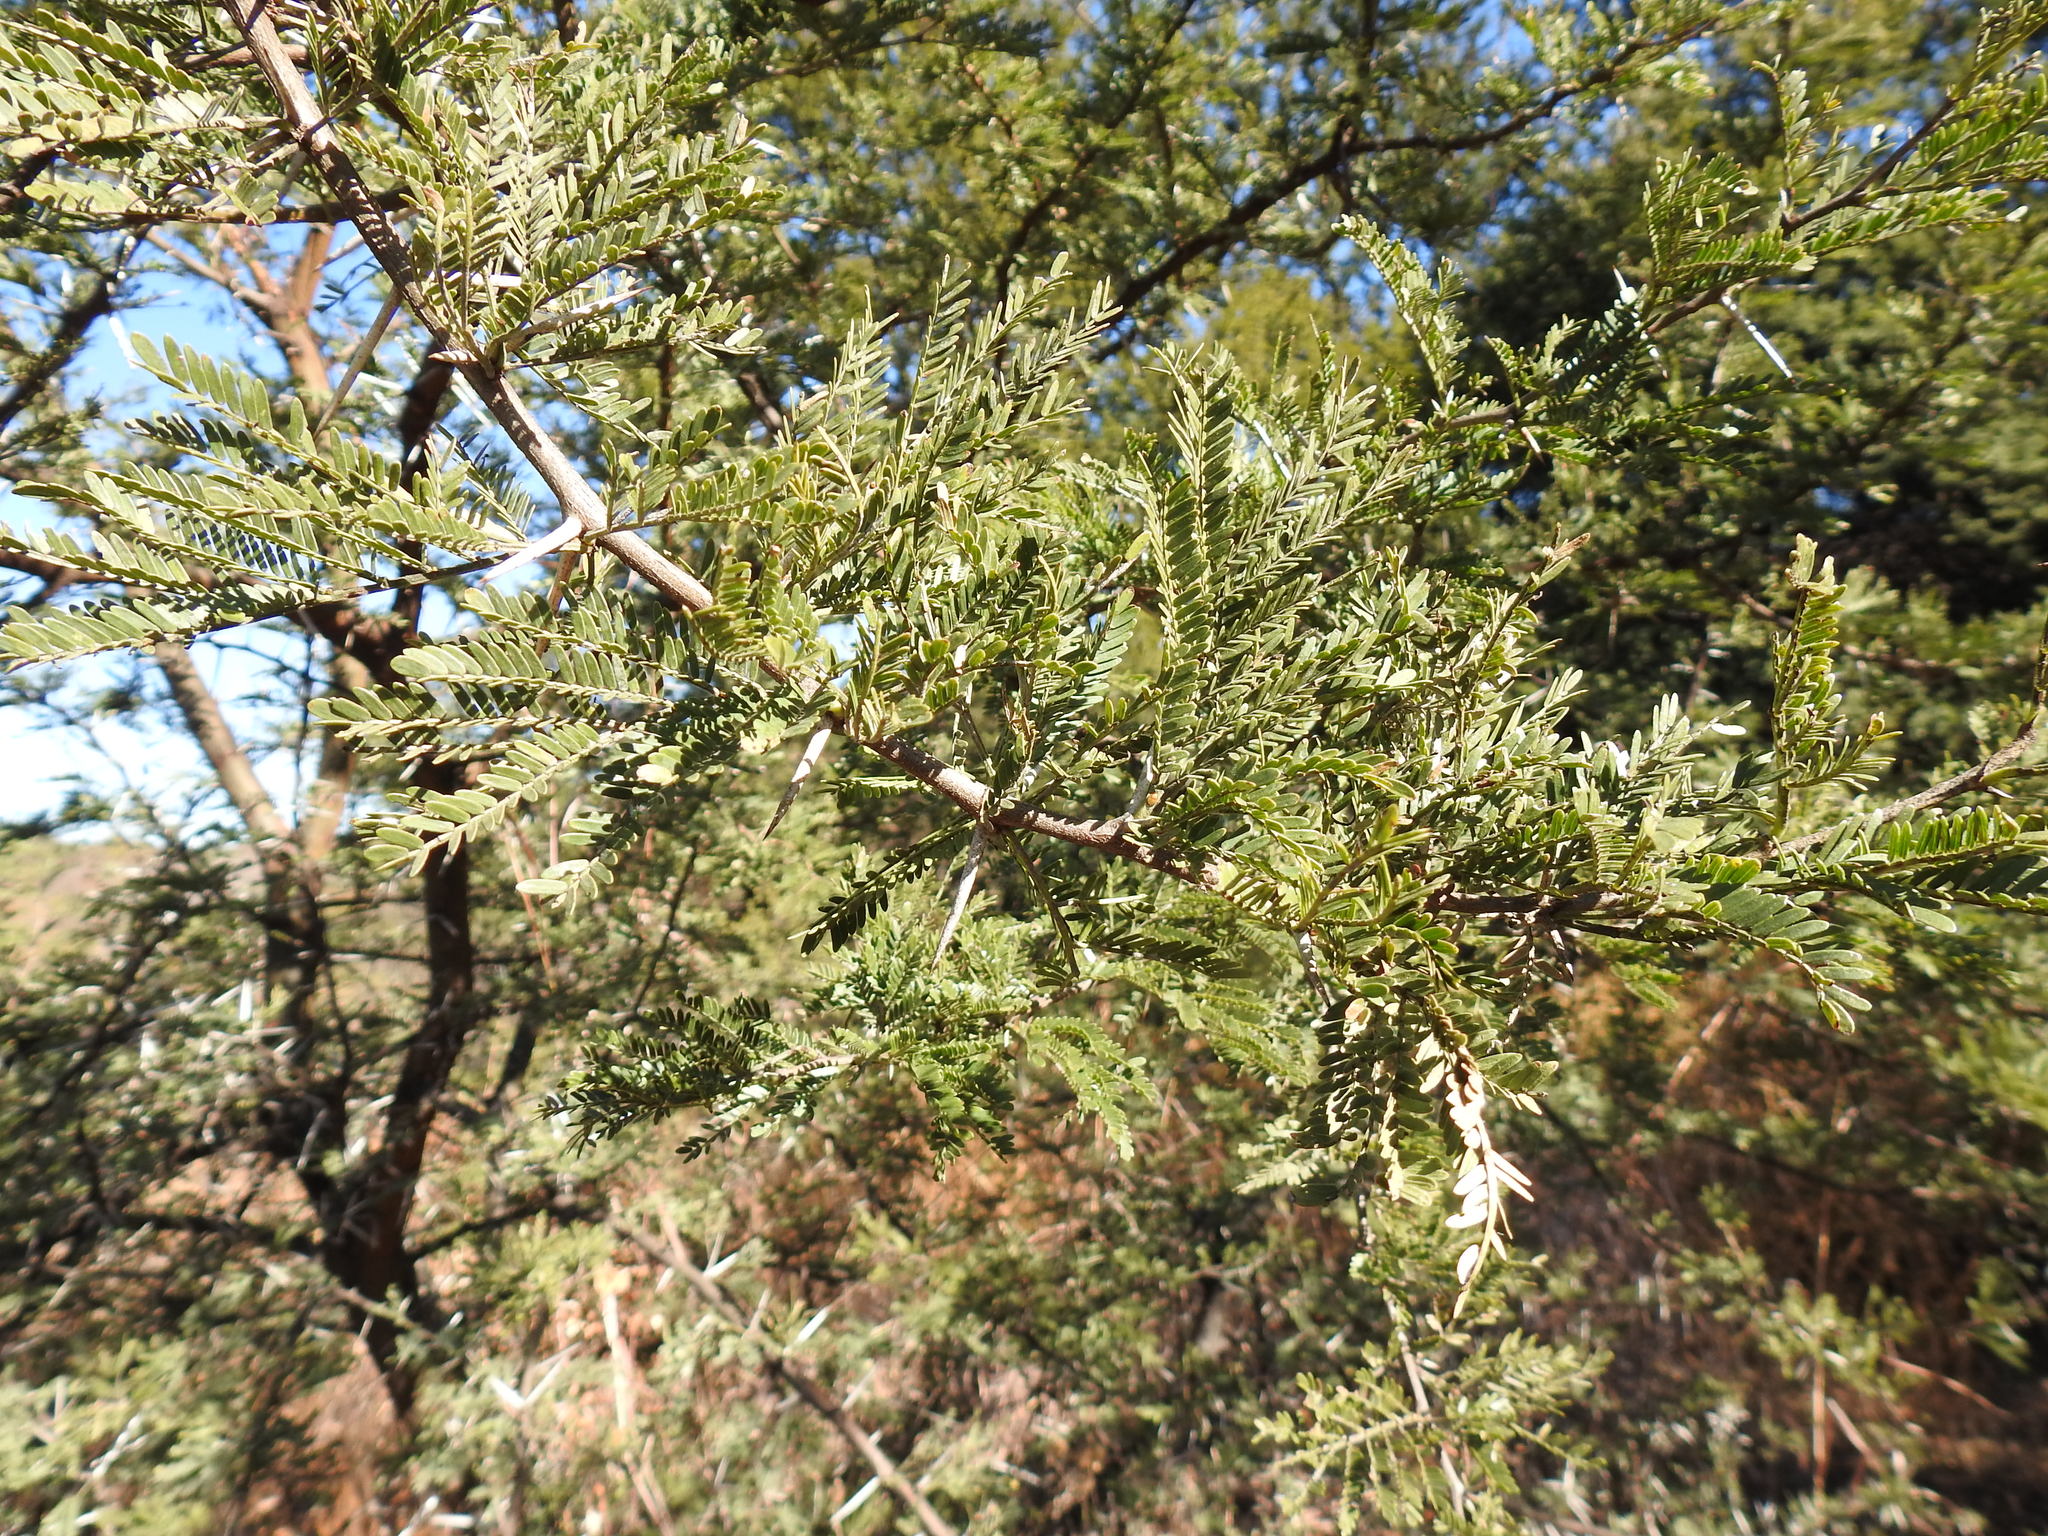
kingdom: Plantae
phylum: Tracheophyta
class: Magnoliopsida
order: Fabales
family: Fabaceae
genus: Vachellia
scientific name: Vachellia karroo
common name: Sweet thorn
